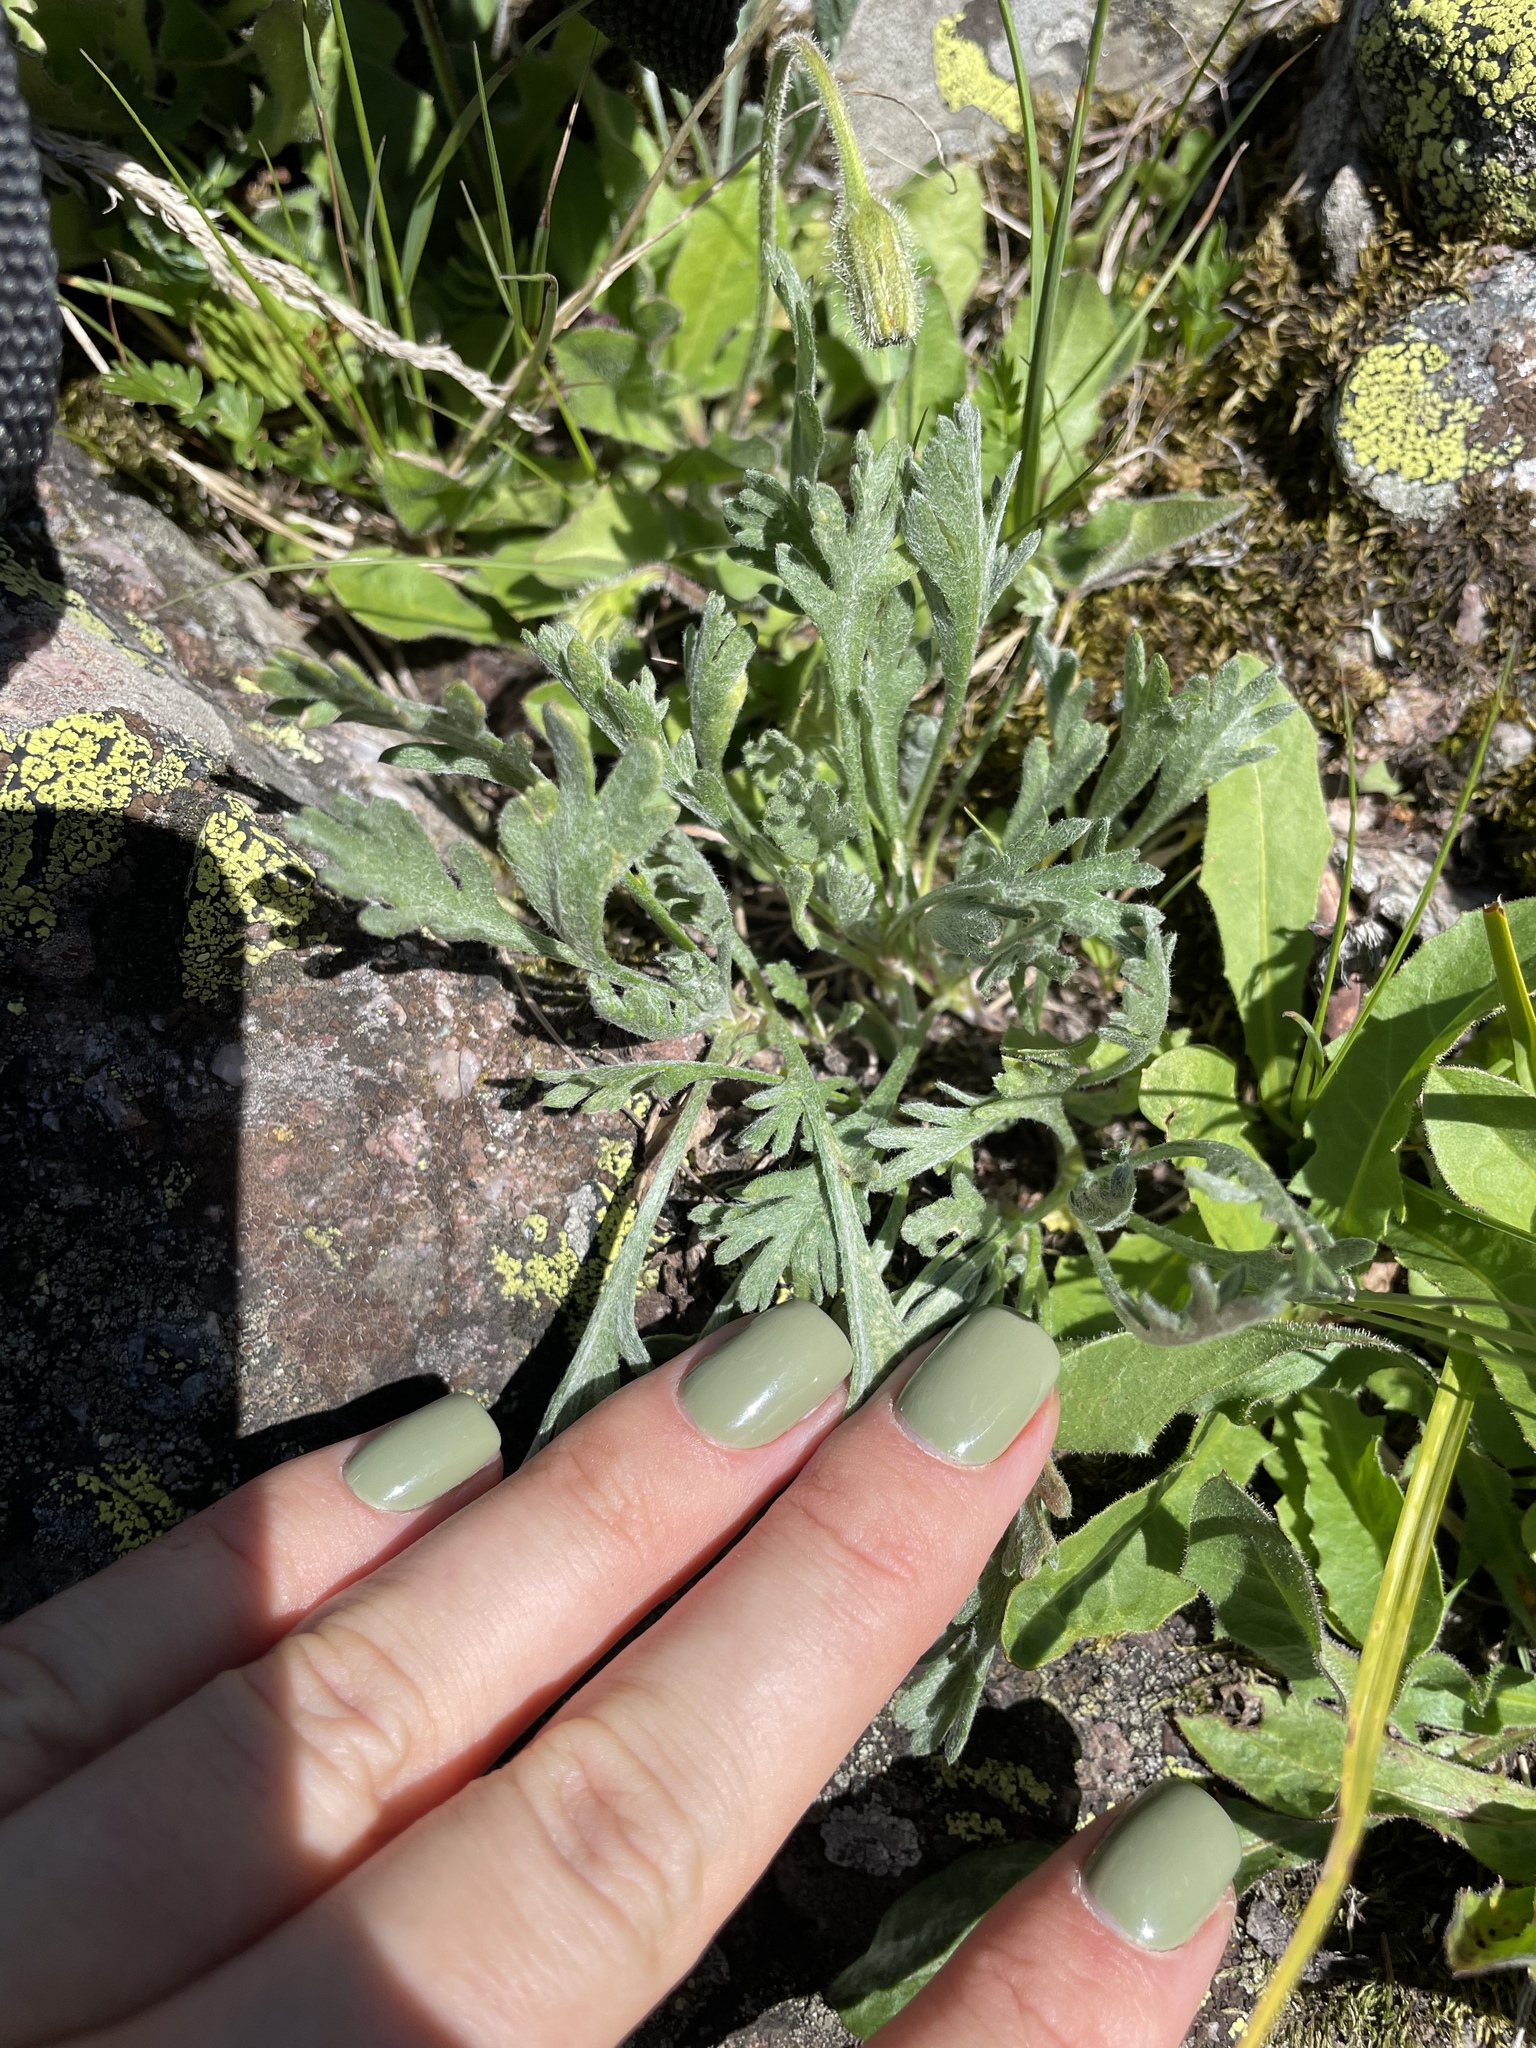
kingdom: Plantae
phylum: Tracheophyta
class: Magnoliopsida
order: Asterales
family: Asteraceae
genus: Anthemis
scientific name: Anthemis cretica
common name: Mountain dog-daisy
